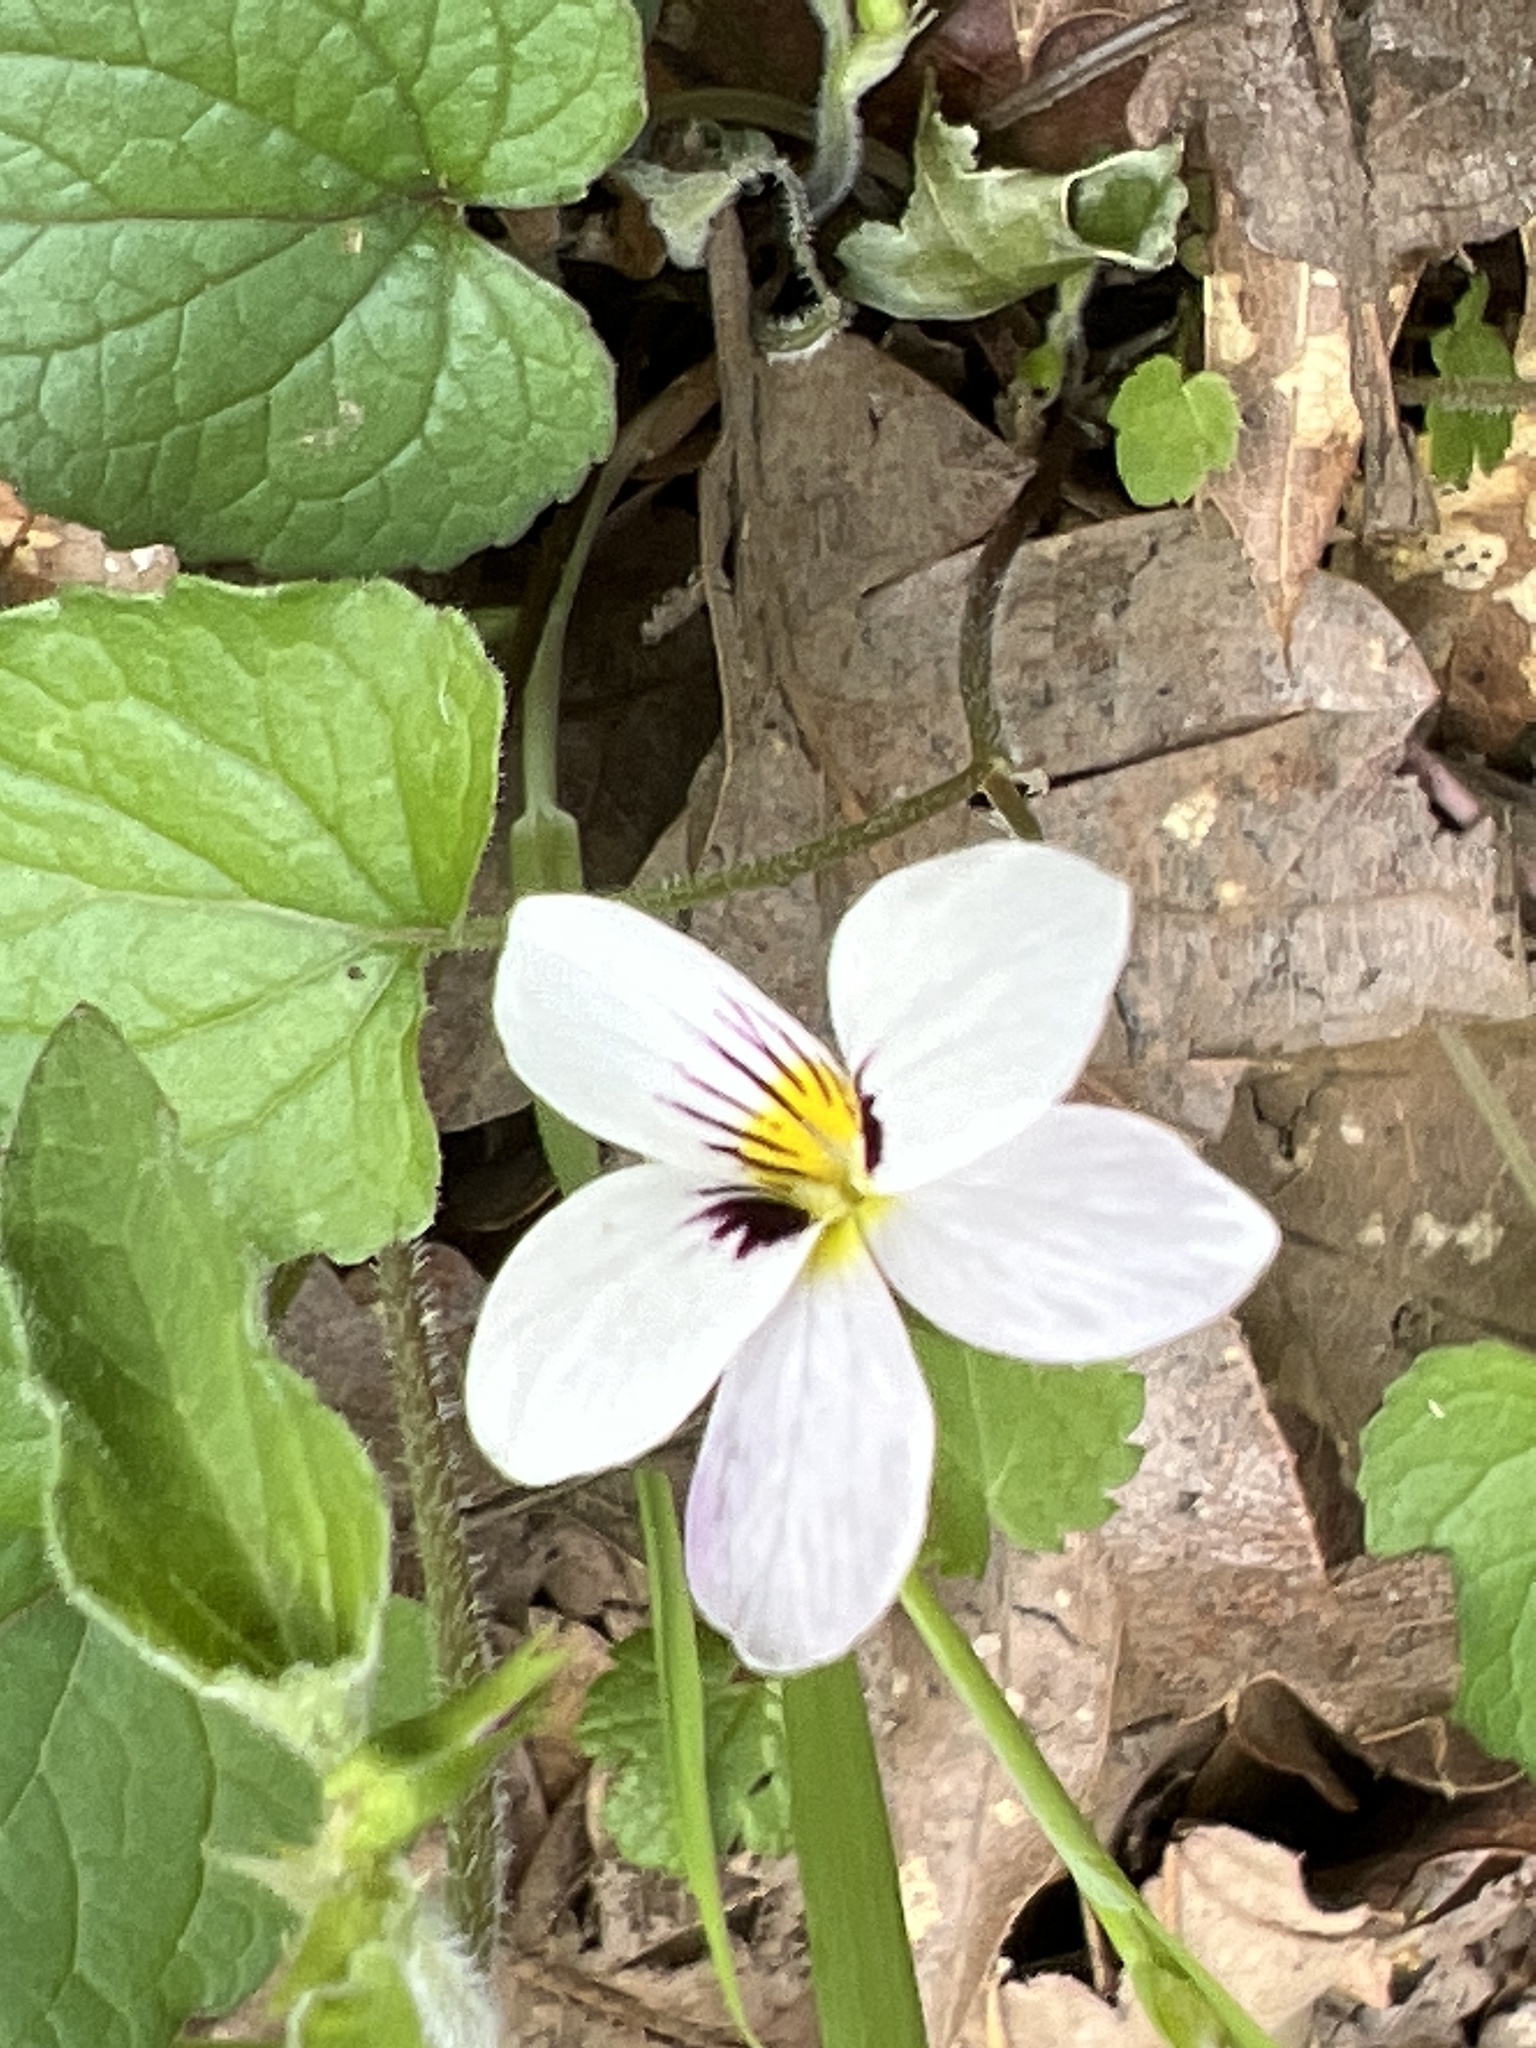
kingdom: Plantae
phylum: Tracheophyta
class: Magnoliopsida
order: Malpighiales
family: Violaceae
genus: Viola
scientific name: Viola ocellata
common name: Western heart's ease
